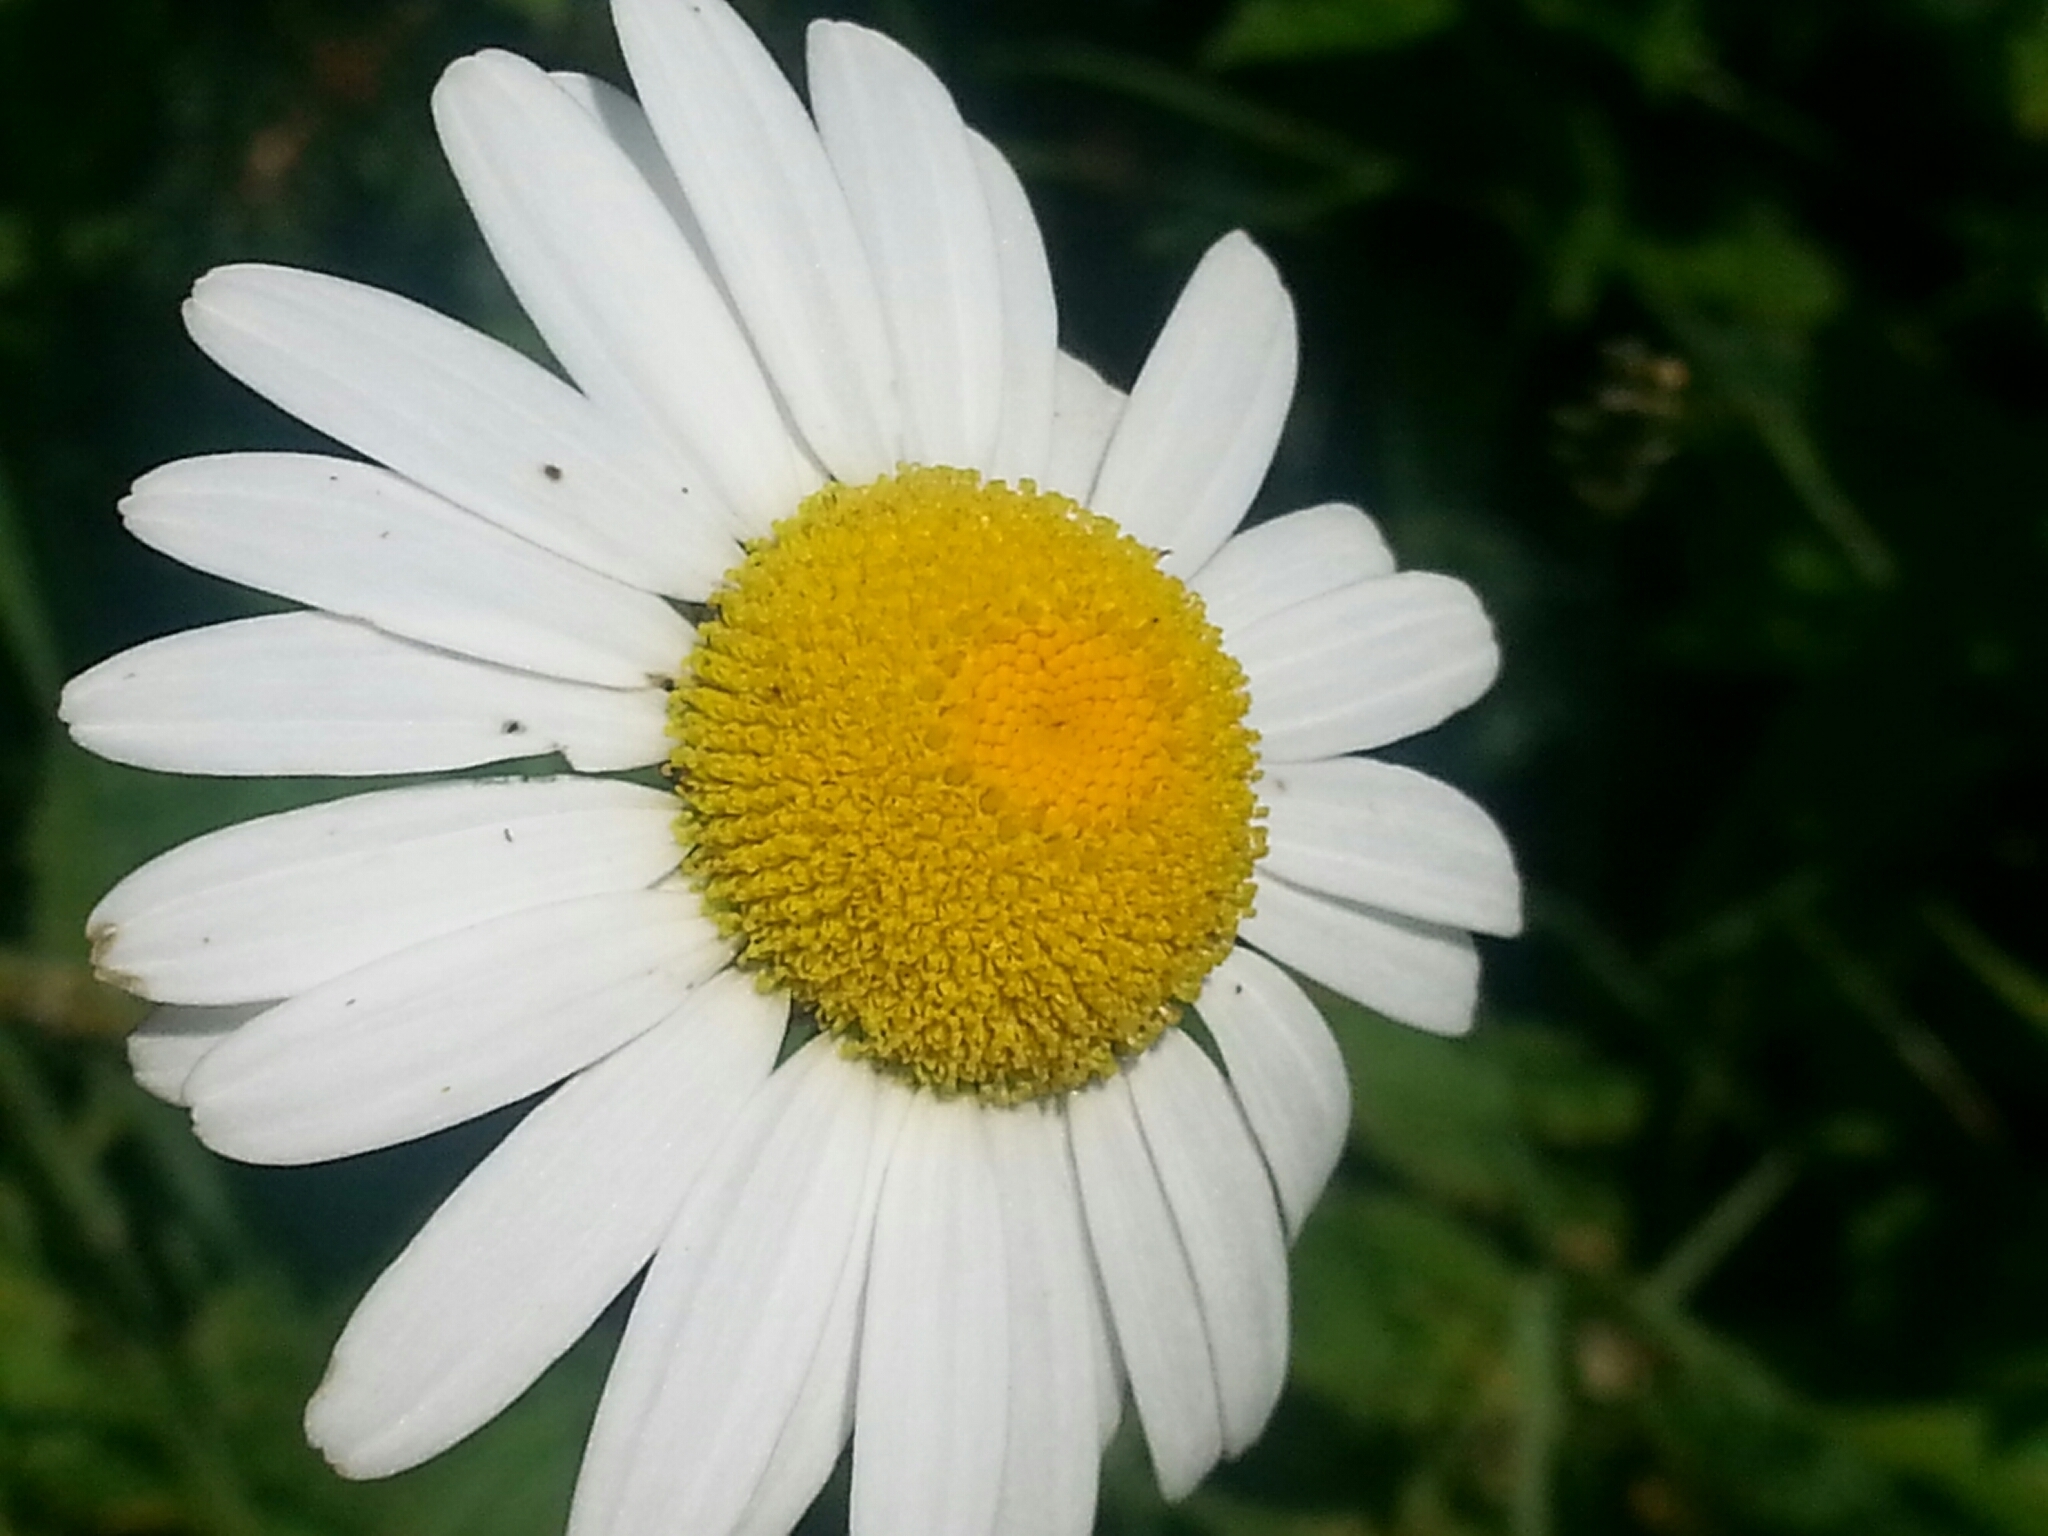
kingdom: Plantae
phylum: Tracheophyta
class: Magnoliopsida
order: Asterales
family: Asteraceae
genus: Leucanthemum
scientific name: Leucanthemum vulgare
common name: Oxeye daisy
